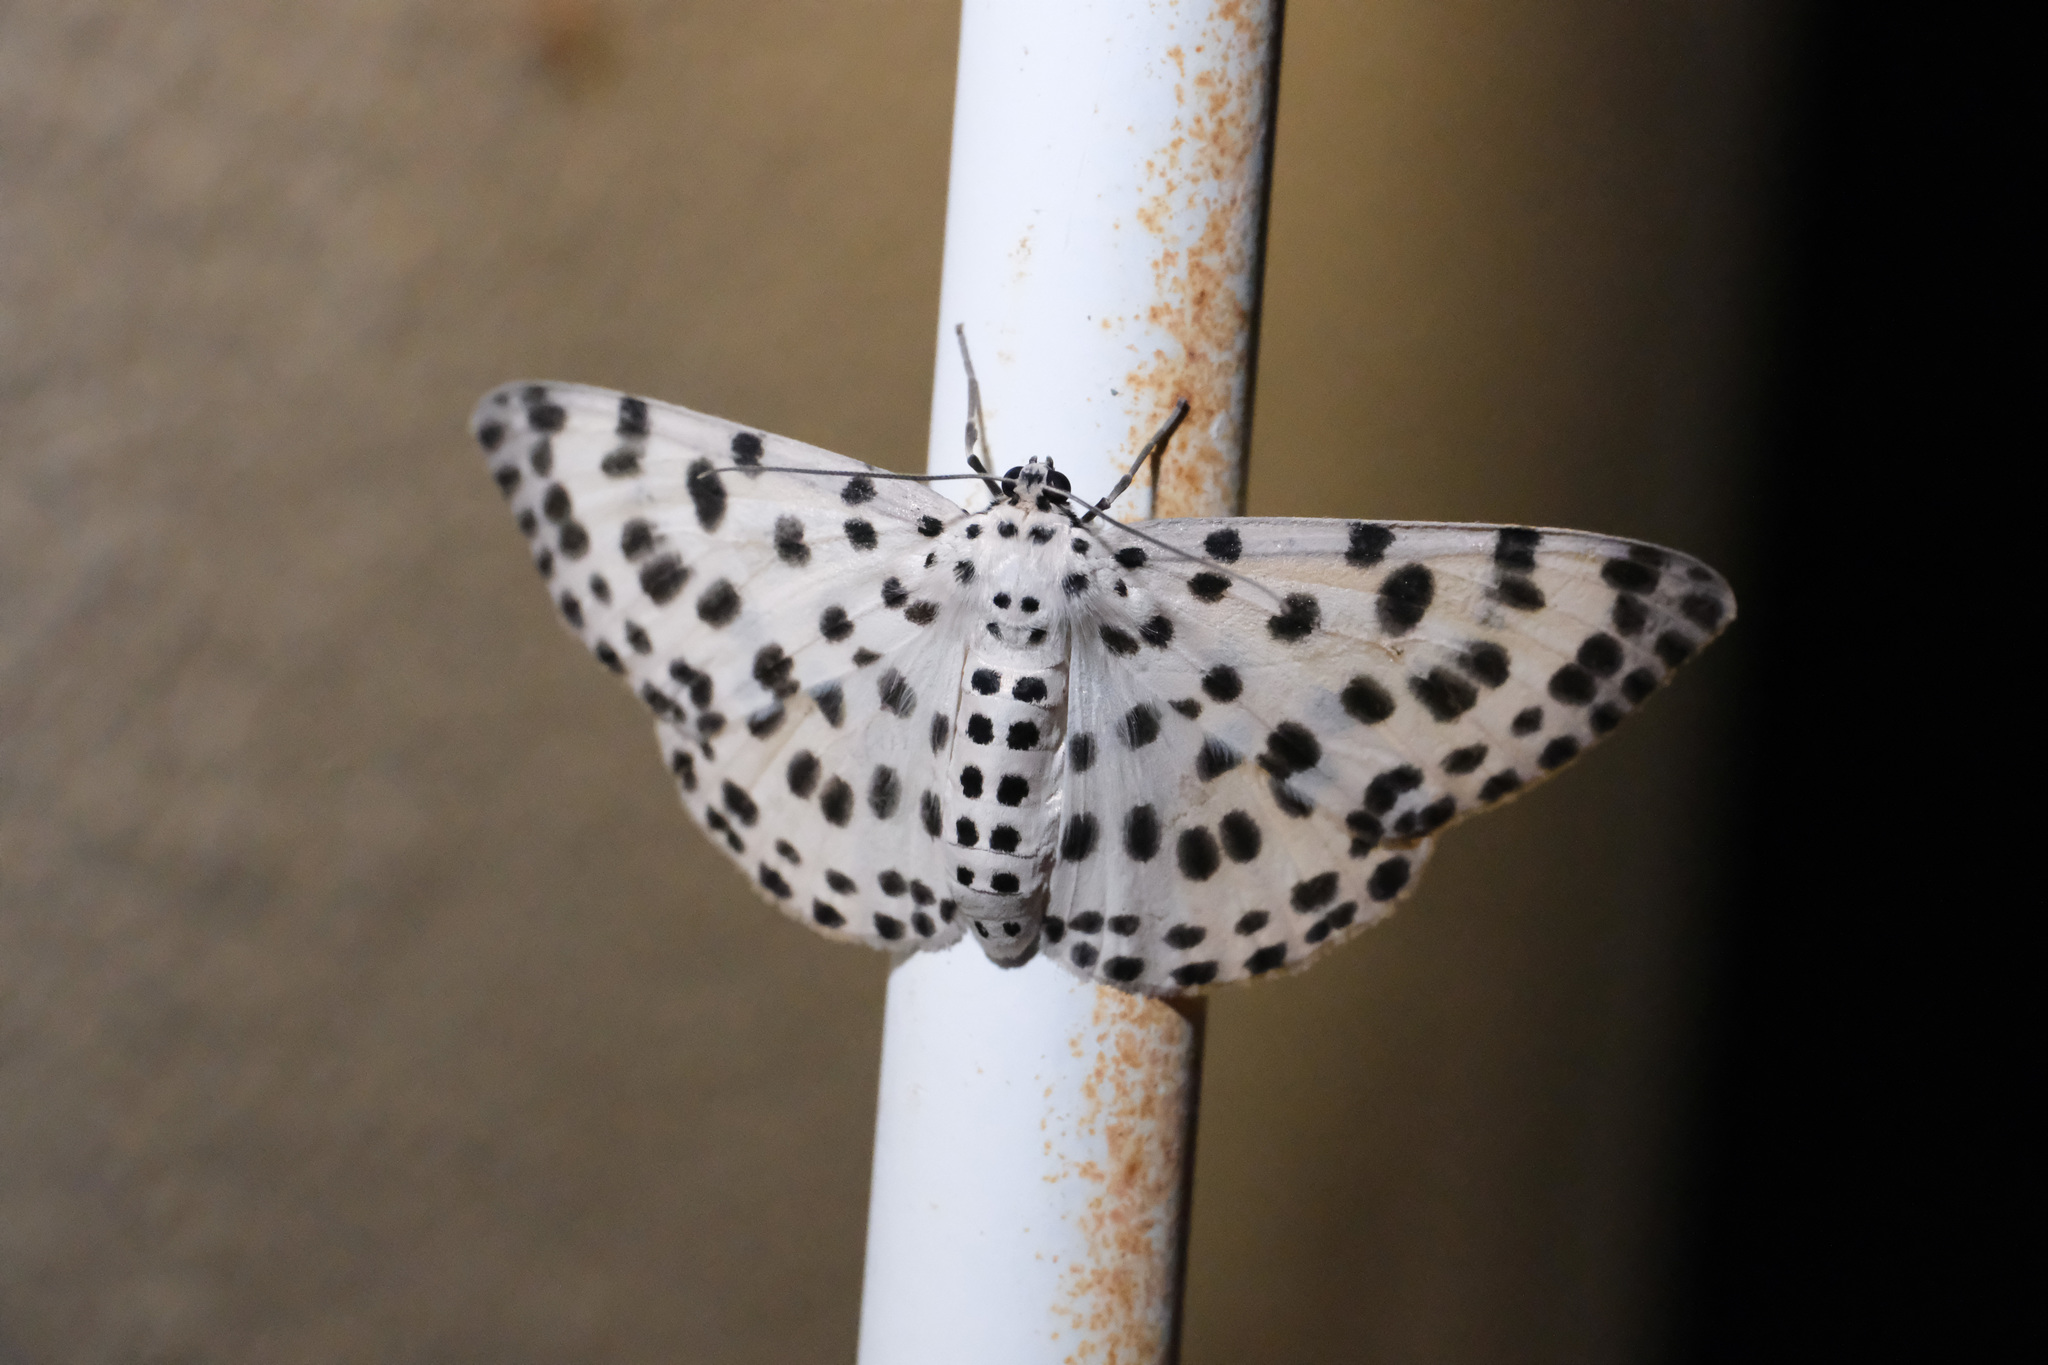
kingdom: Animalia
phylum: Arthropoda
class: Insecta
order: Lepidoptera
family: Geometridae
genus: Antipercnia
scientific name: Antipercnia albinigrata
